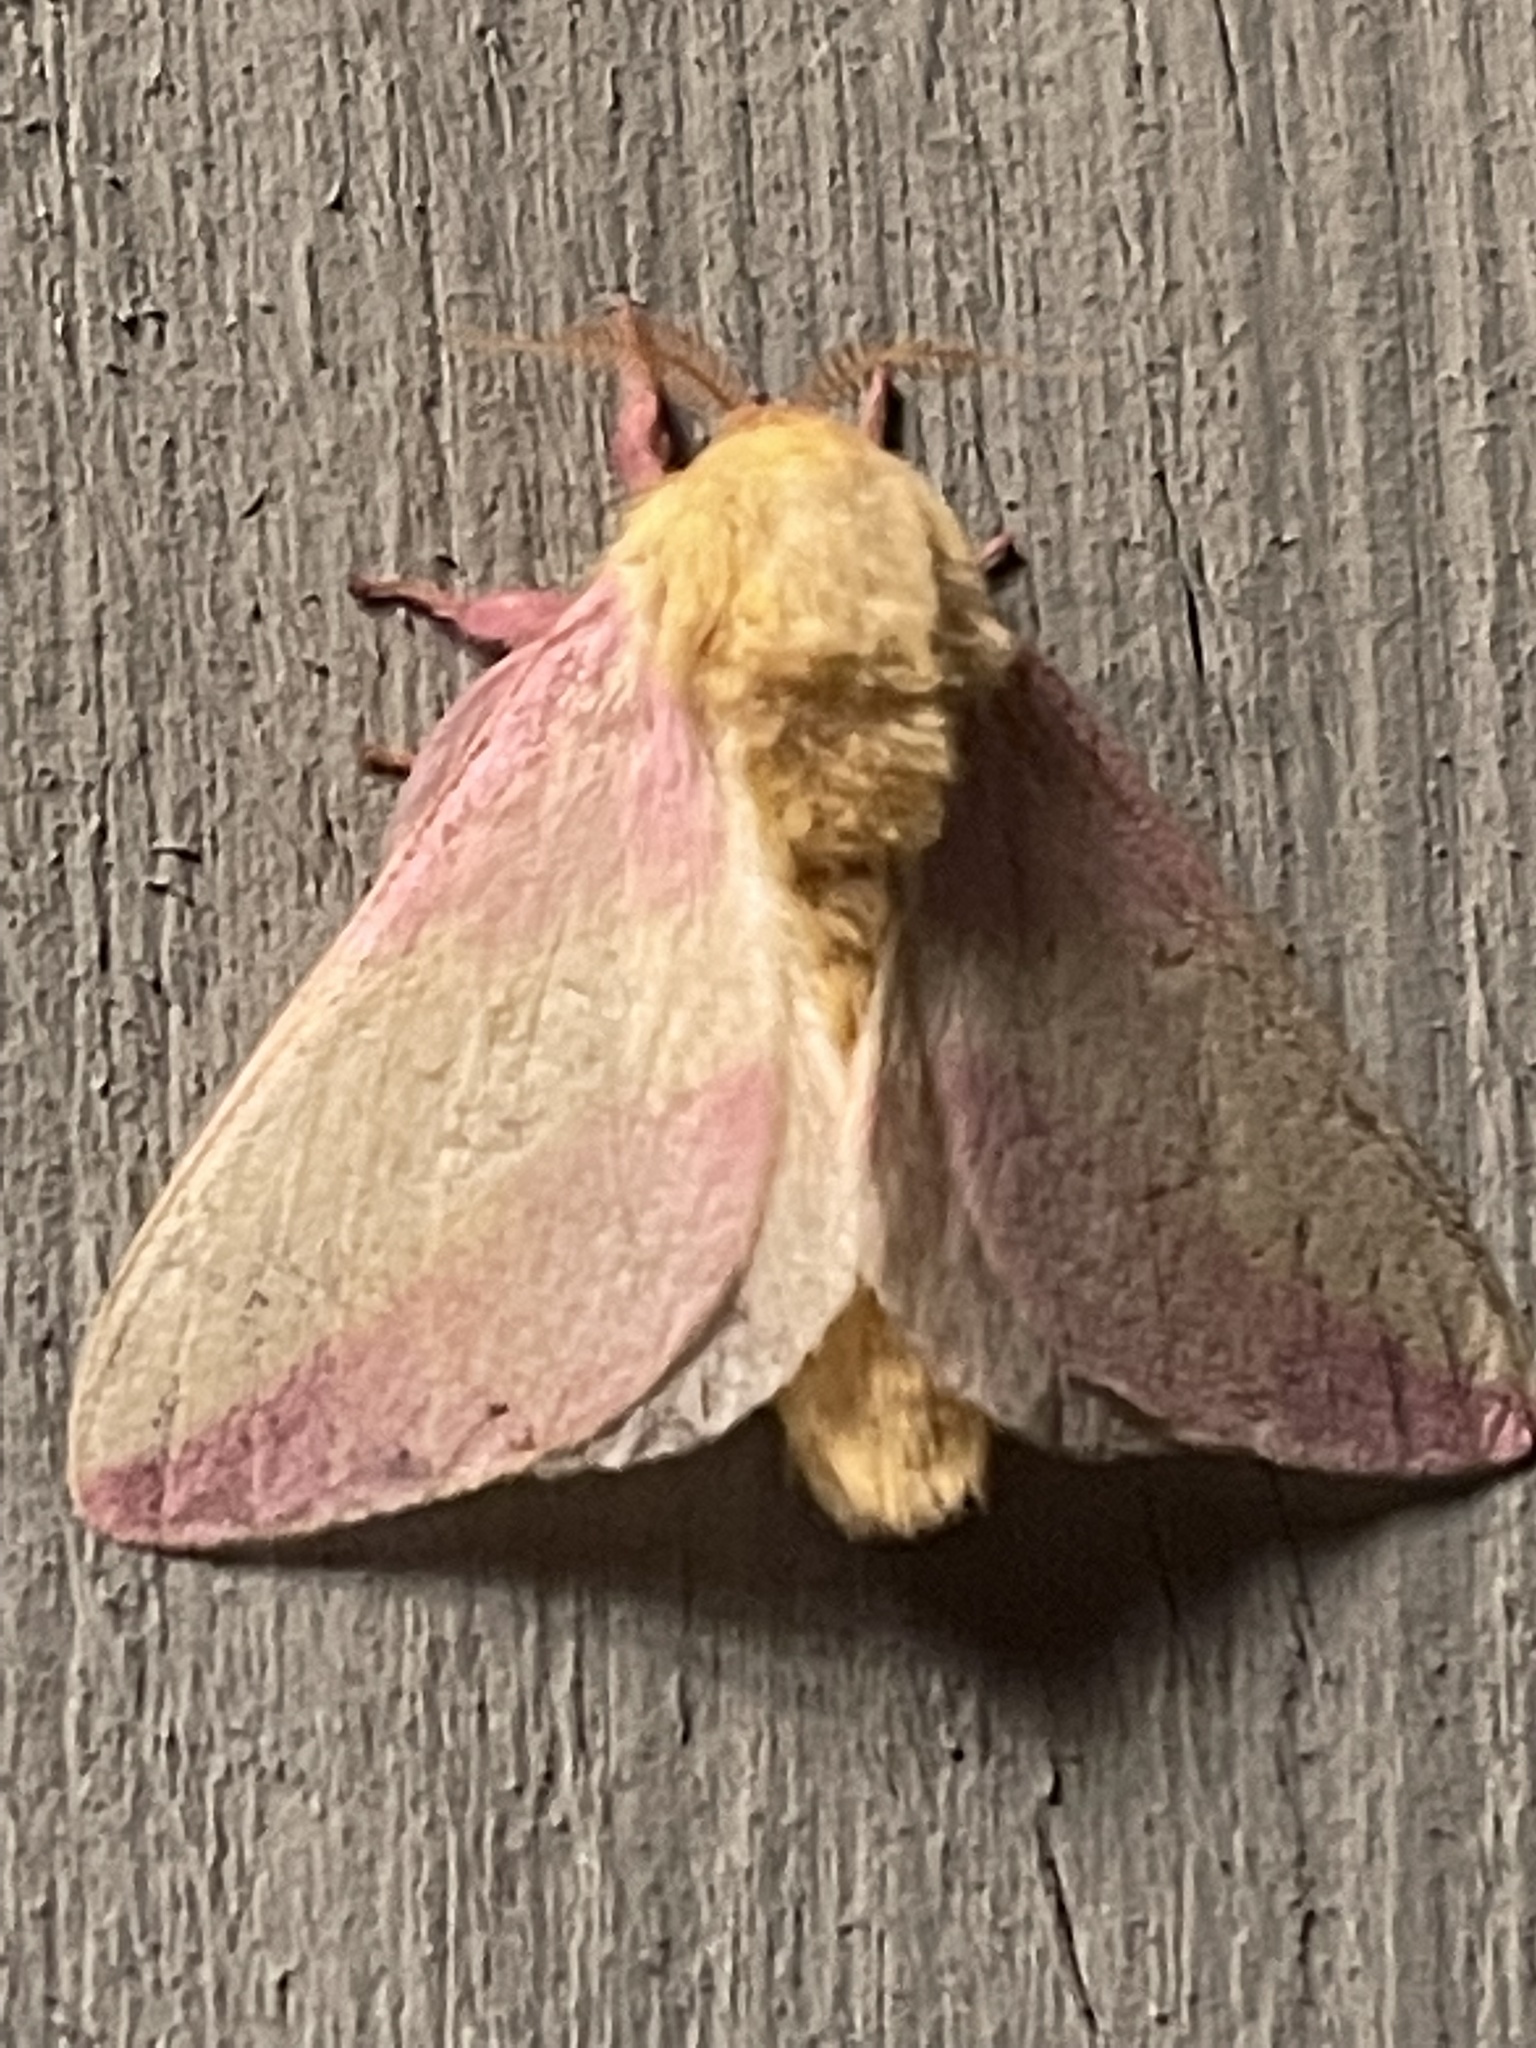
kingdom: Animalia
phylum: Arthropoda
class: Insecta
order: Lepidoptera
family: Saturniidae
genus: Dryocampa
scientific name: Dryocampa rubicunda
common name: Rosy maple moth
